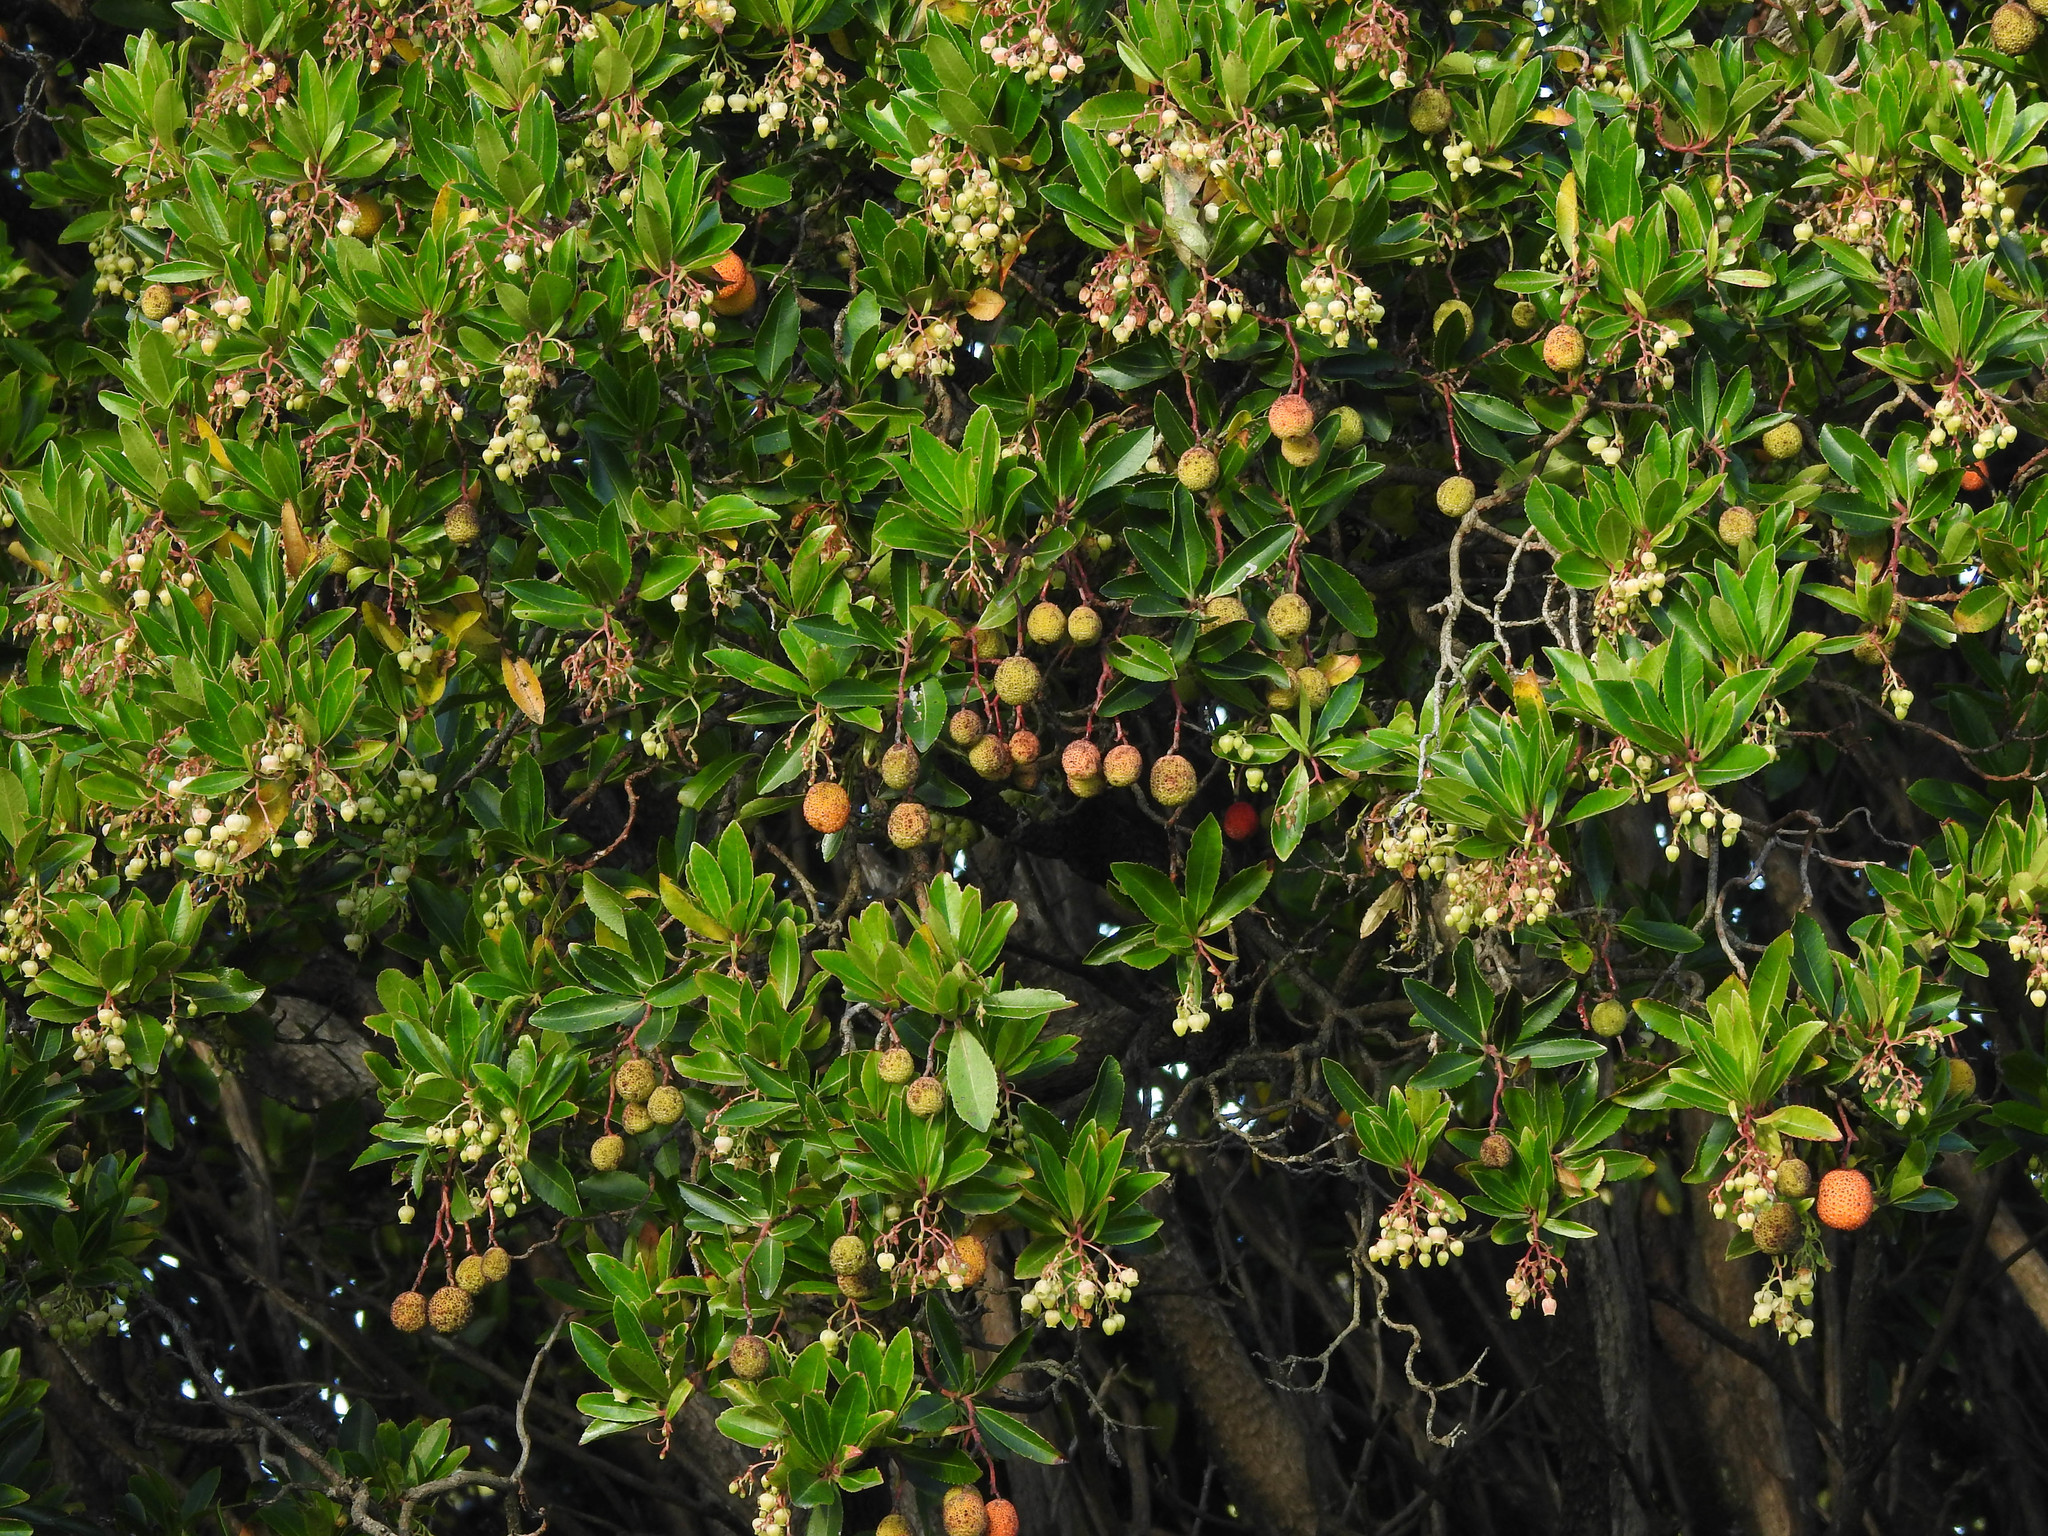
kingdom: Plantae
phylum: Tracheophyta
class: Magnoliopsida
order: Ericales
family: Ericaceae
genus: Arbutus
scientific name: Arbutus unedo
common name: Strawberry-tree
